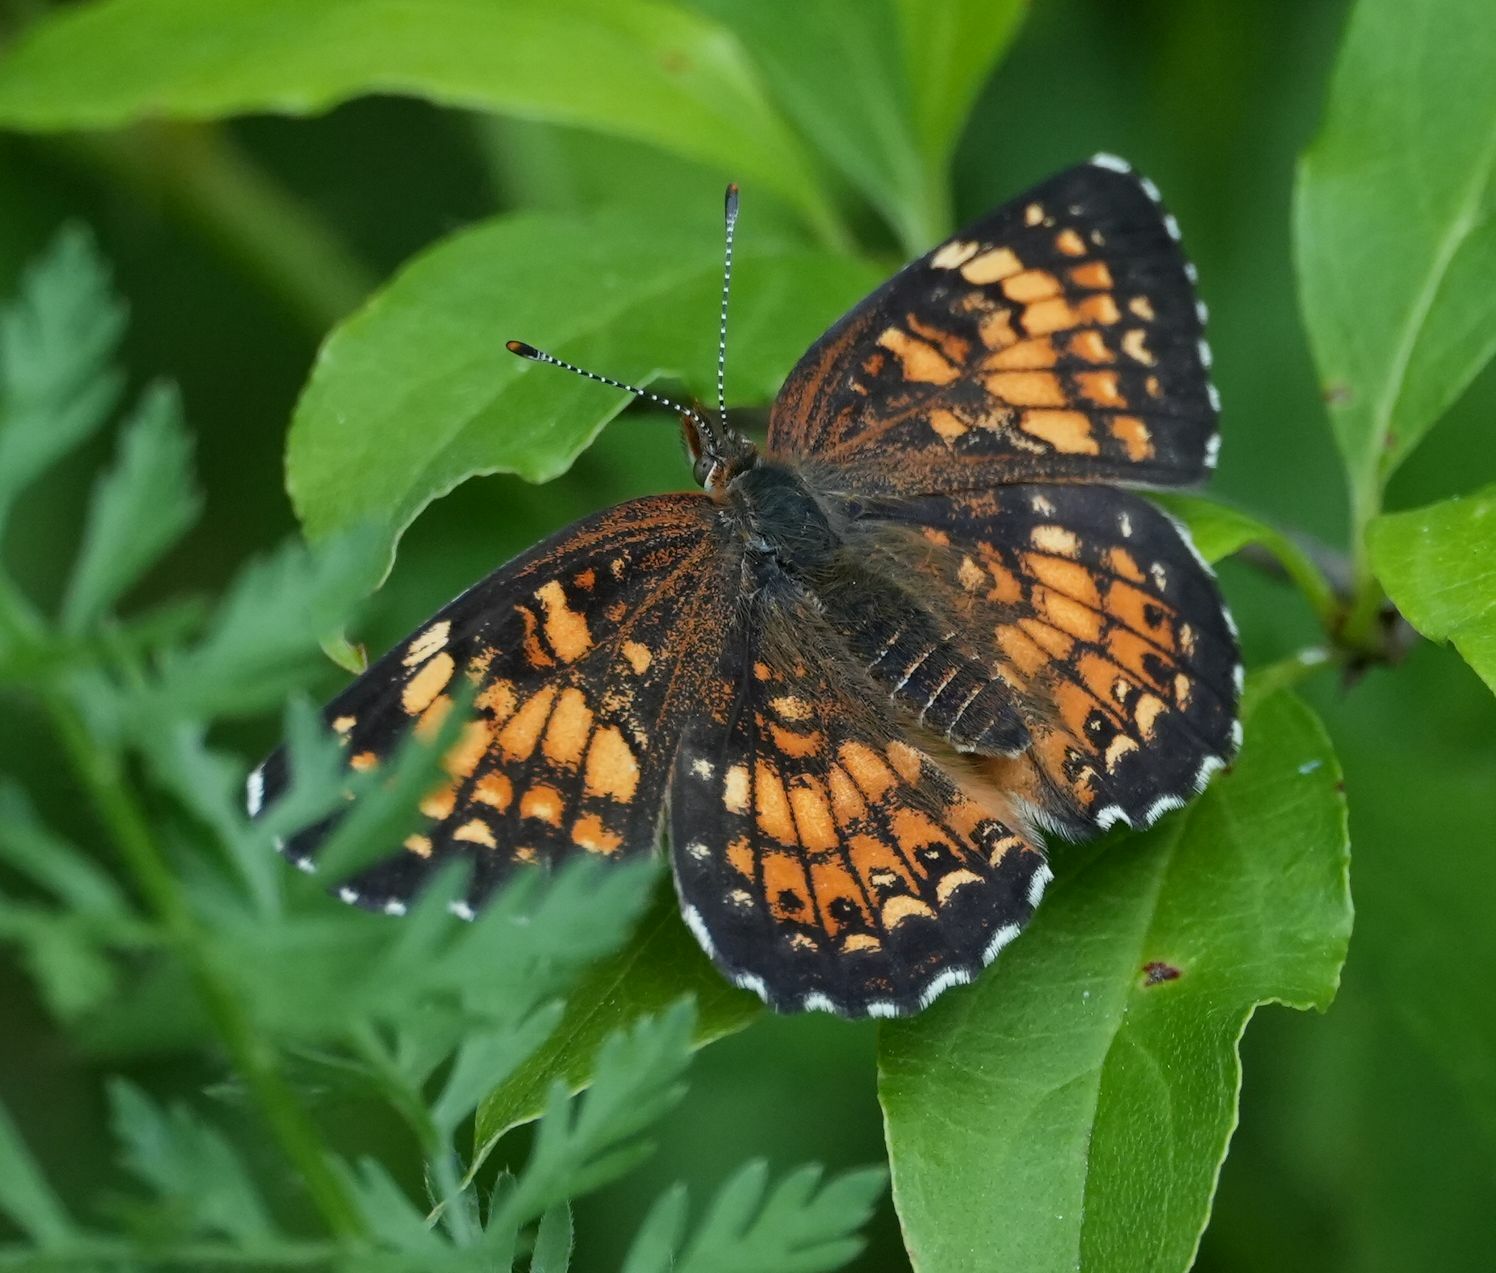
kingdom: Animalia
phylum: Arthropoda
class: Insecta
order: Lepidoptera
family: Nymphalidae
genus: Chlosyne
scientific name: Chlosyne harrisii
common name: Harris's checkerspot
